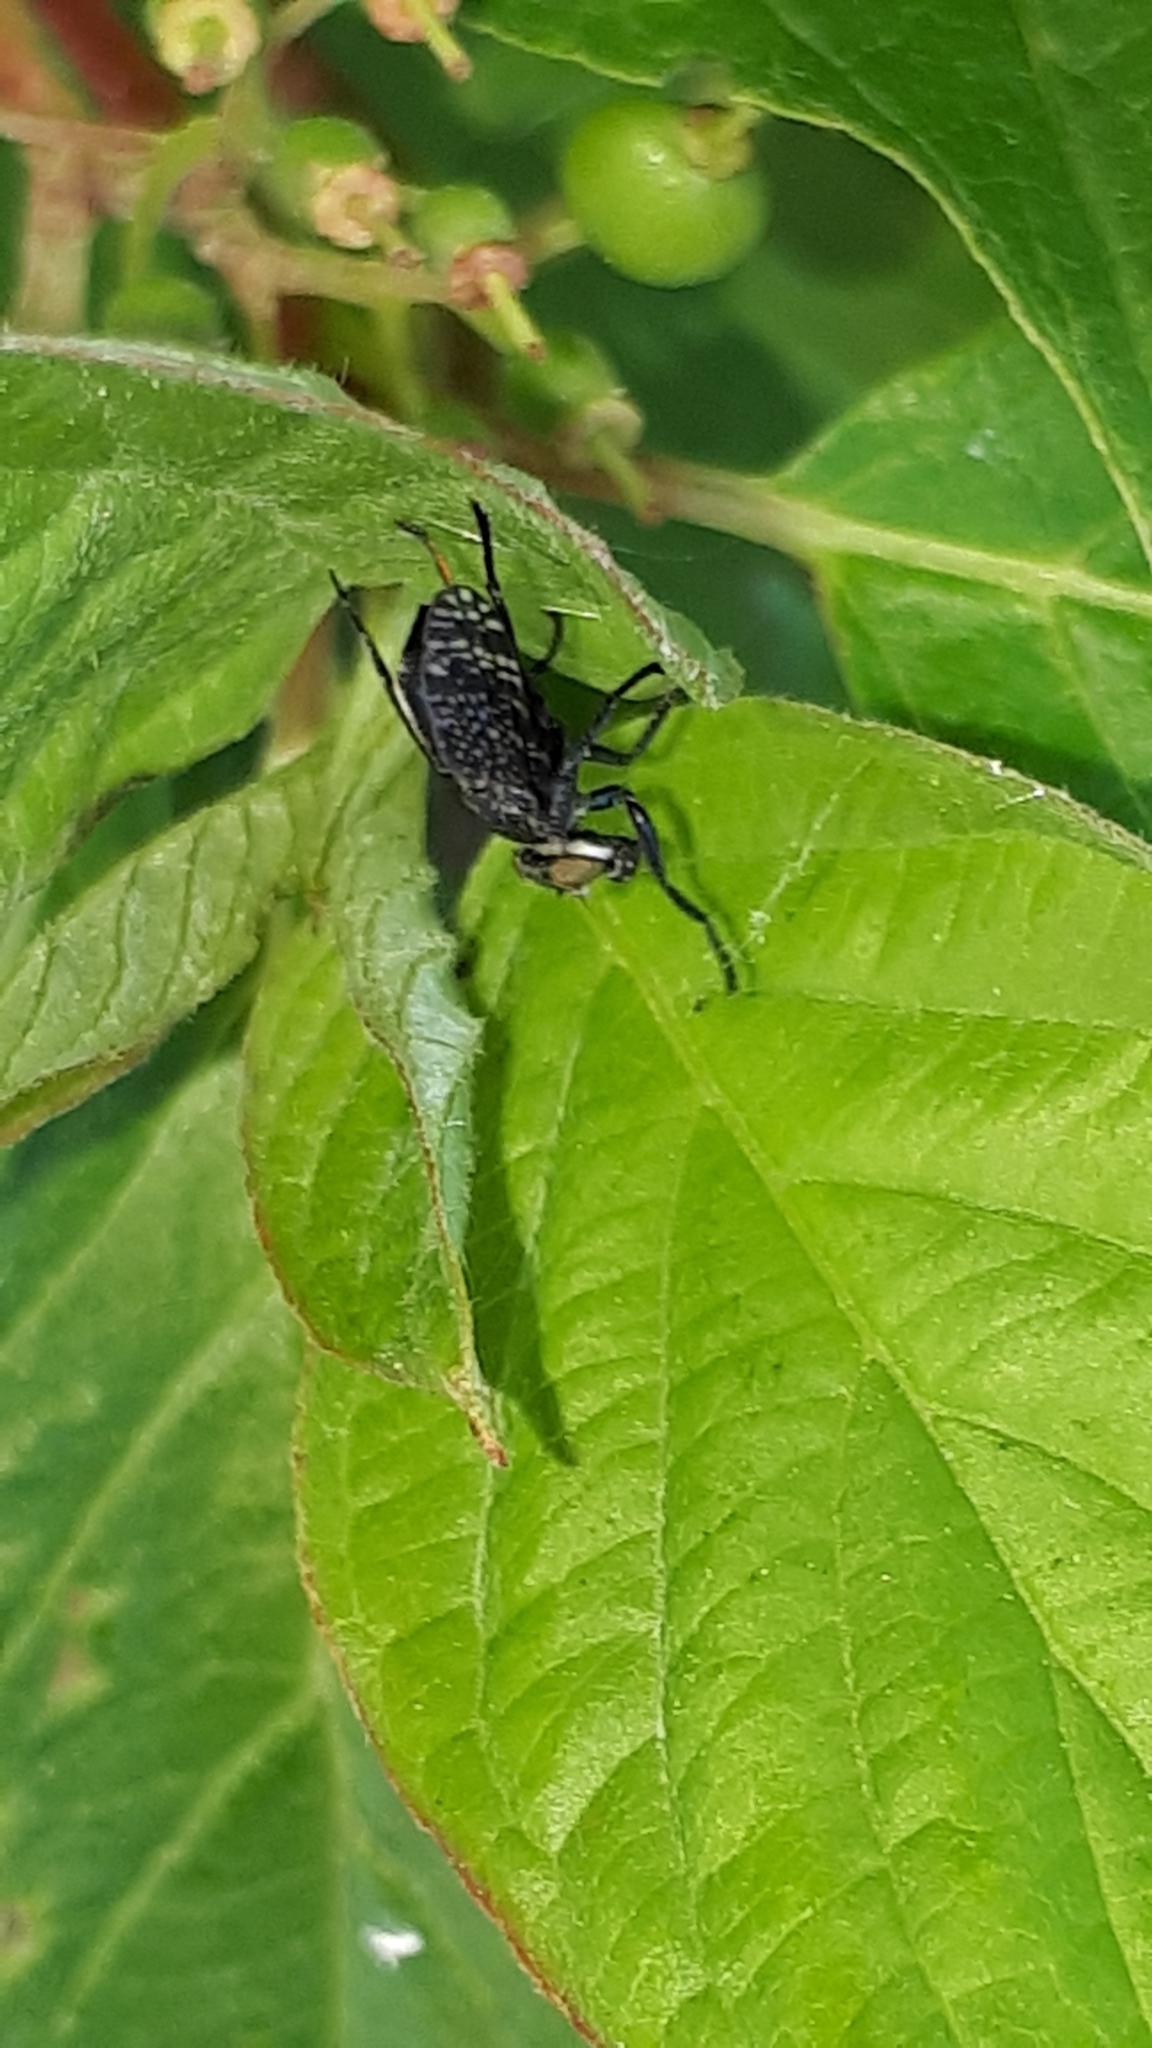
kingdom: Animalia
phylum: Arthropoda
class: Insecta
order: Diptera
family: Platystomatidae
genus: Platystoma
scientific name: Platystoma seminationis
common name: Fly
